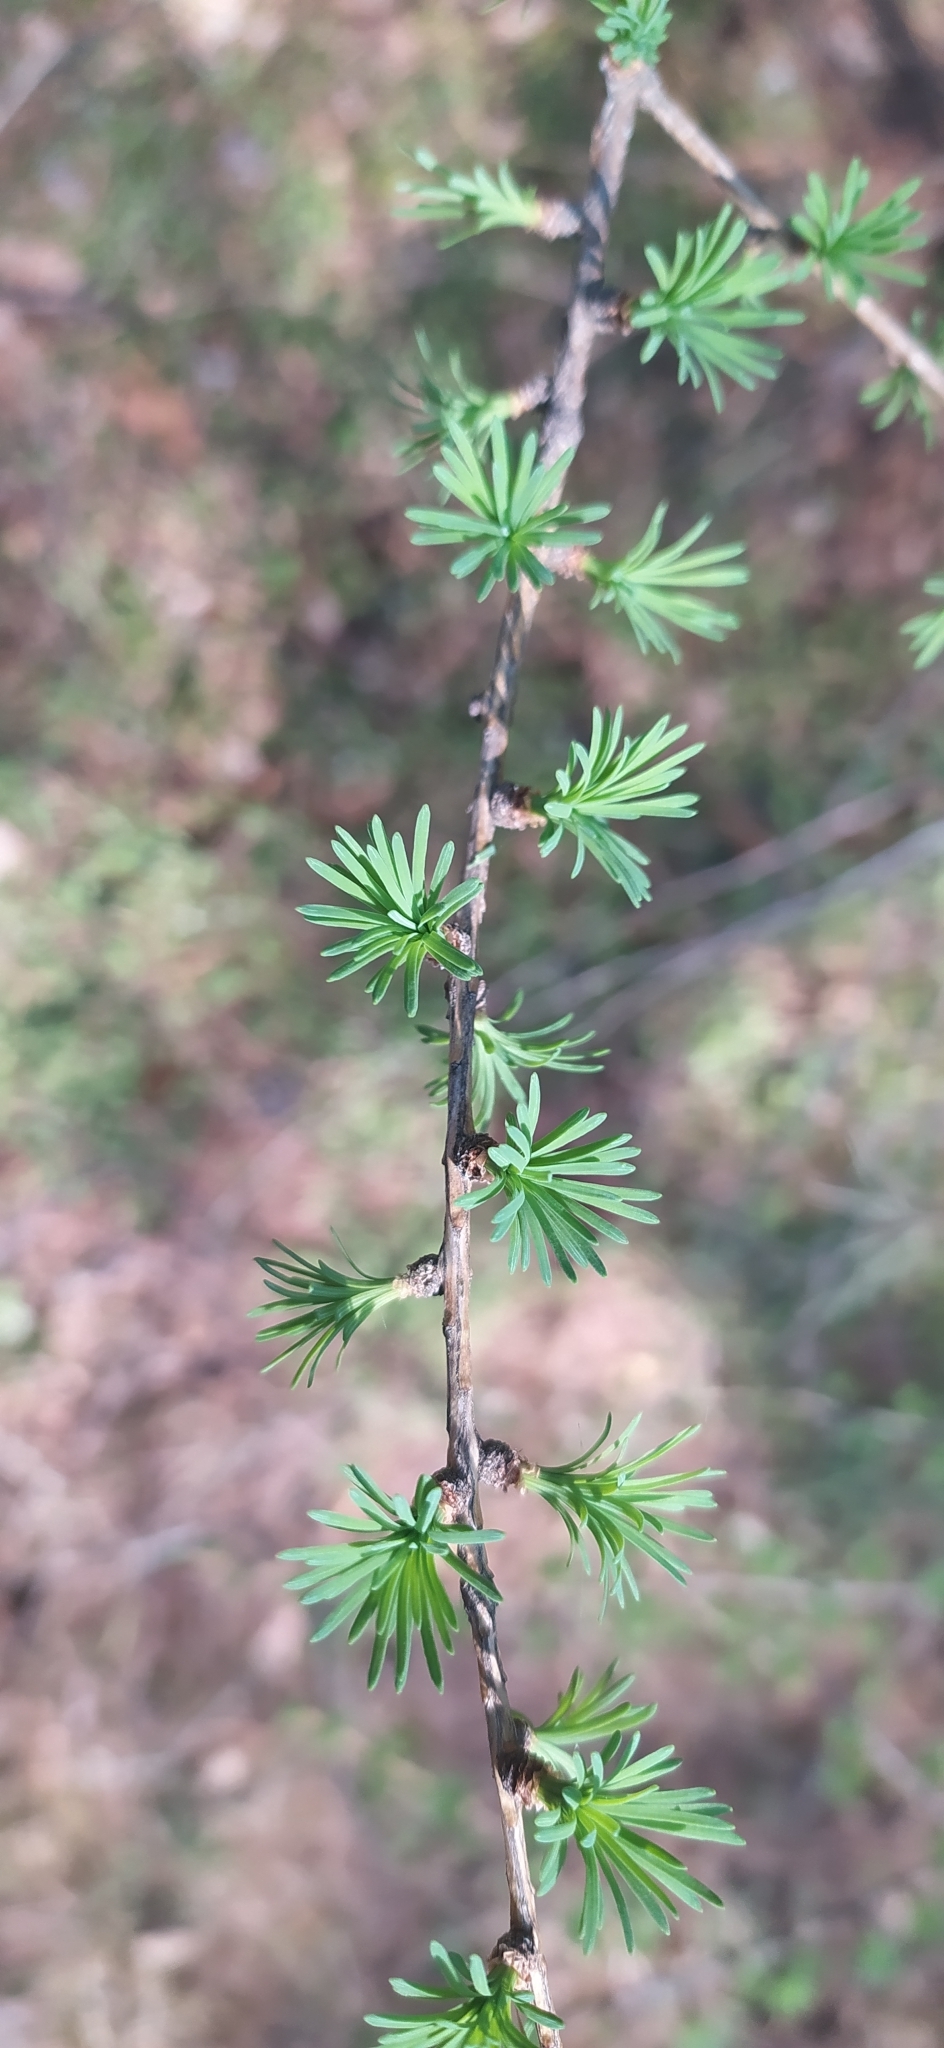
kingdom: Plantae
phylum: Tracheophyta
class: Pinopsida
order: Pinales
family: Pinaceae
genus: Larix
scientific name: Larix sibirica
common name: Siberian larch
